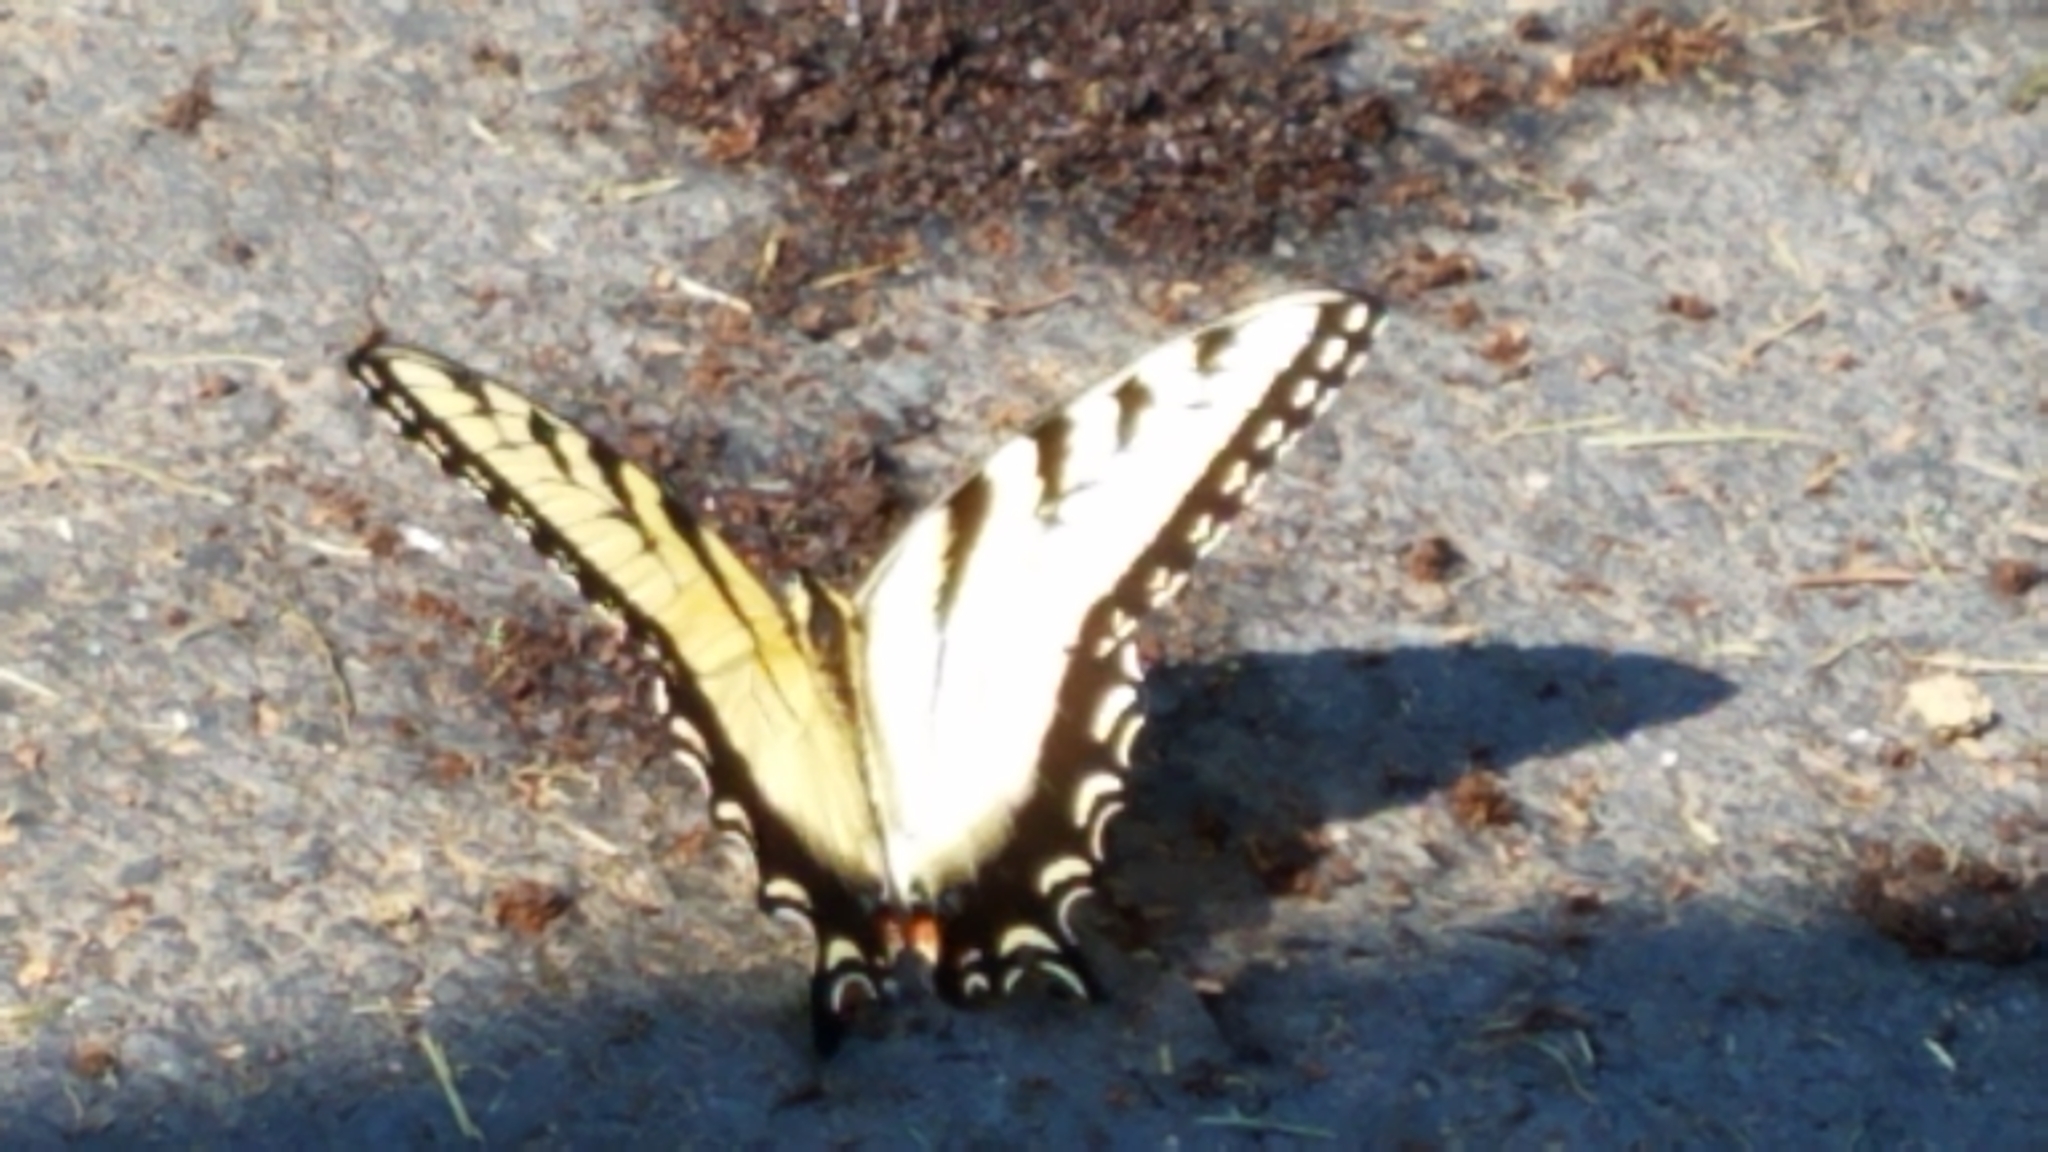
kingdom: Animalia
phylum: Arthropoda
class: Insecta
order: Lepidoptera
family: Papilionidae
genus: Papilio
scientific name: Papilio glaucus
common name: Tiger swallowtail
